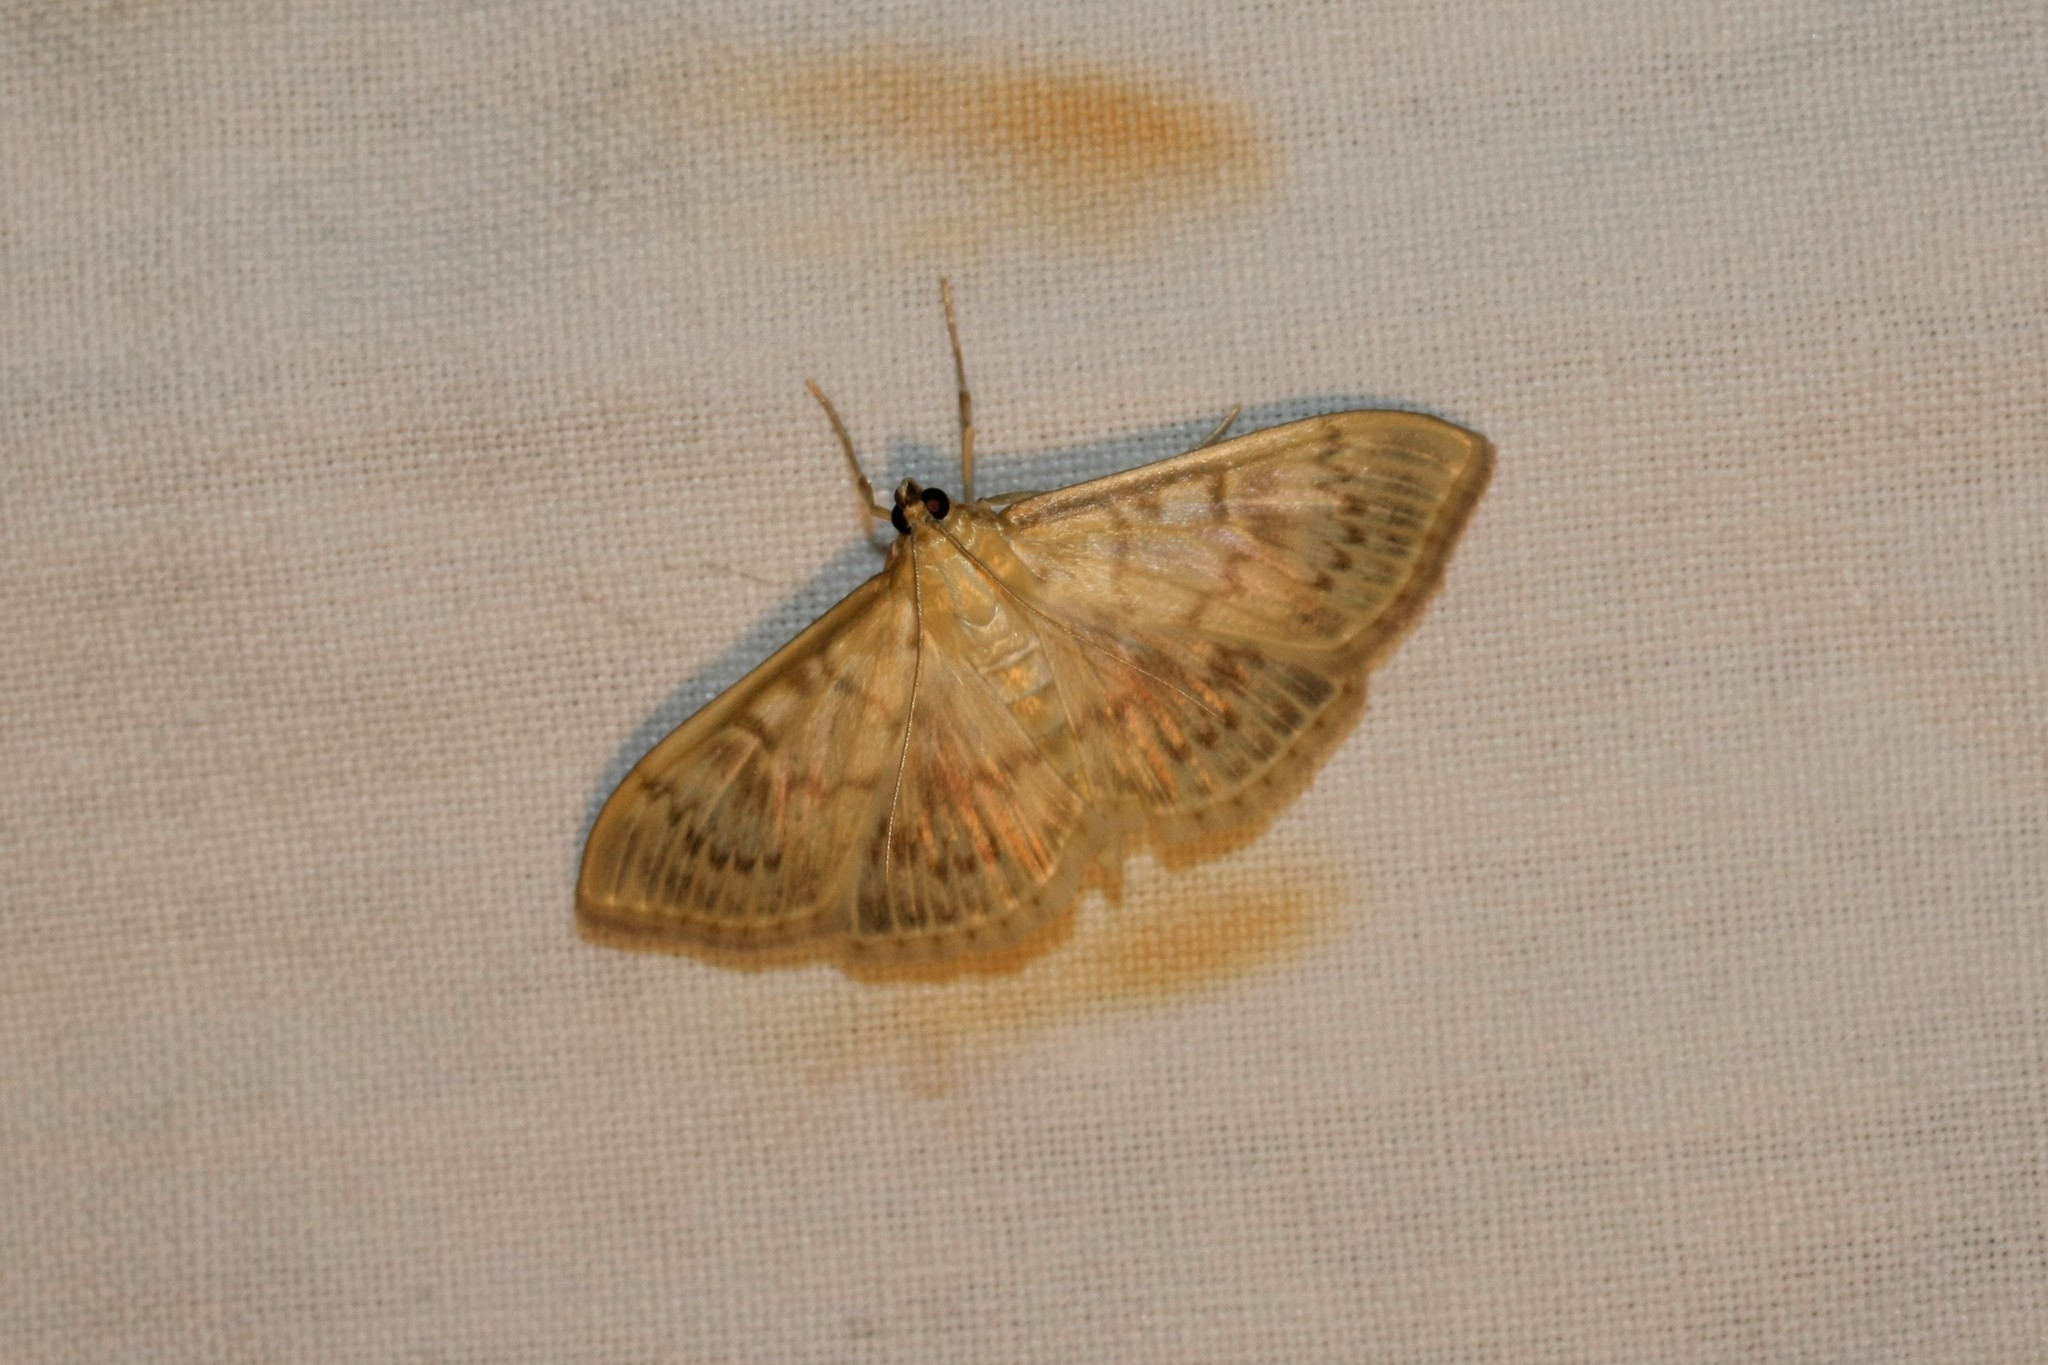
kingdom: Animalia
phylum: Arthropoda
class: Insecta
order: Lepidoptera
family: Crambidae
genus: Patania
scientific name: Patania ruralis
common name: Mother of pearl
